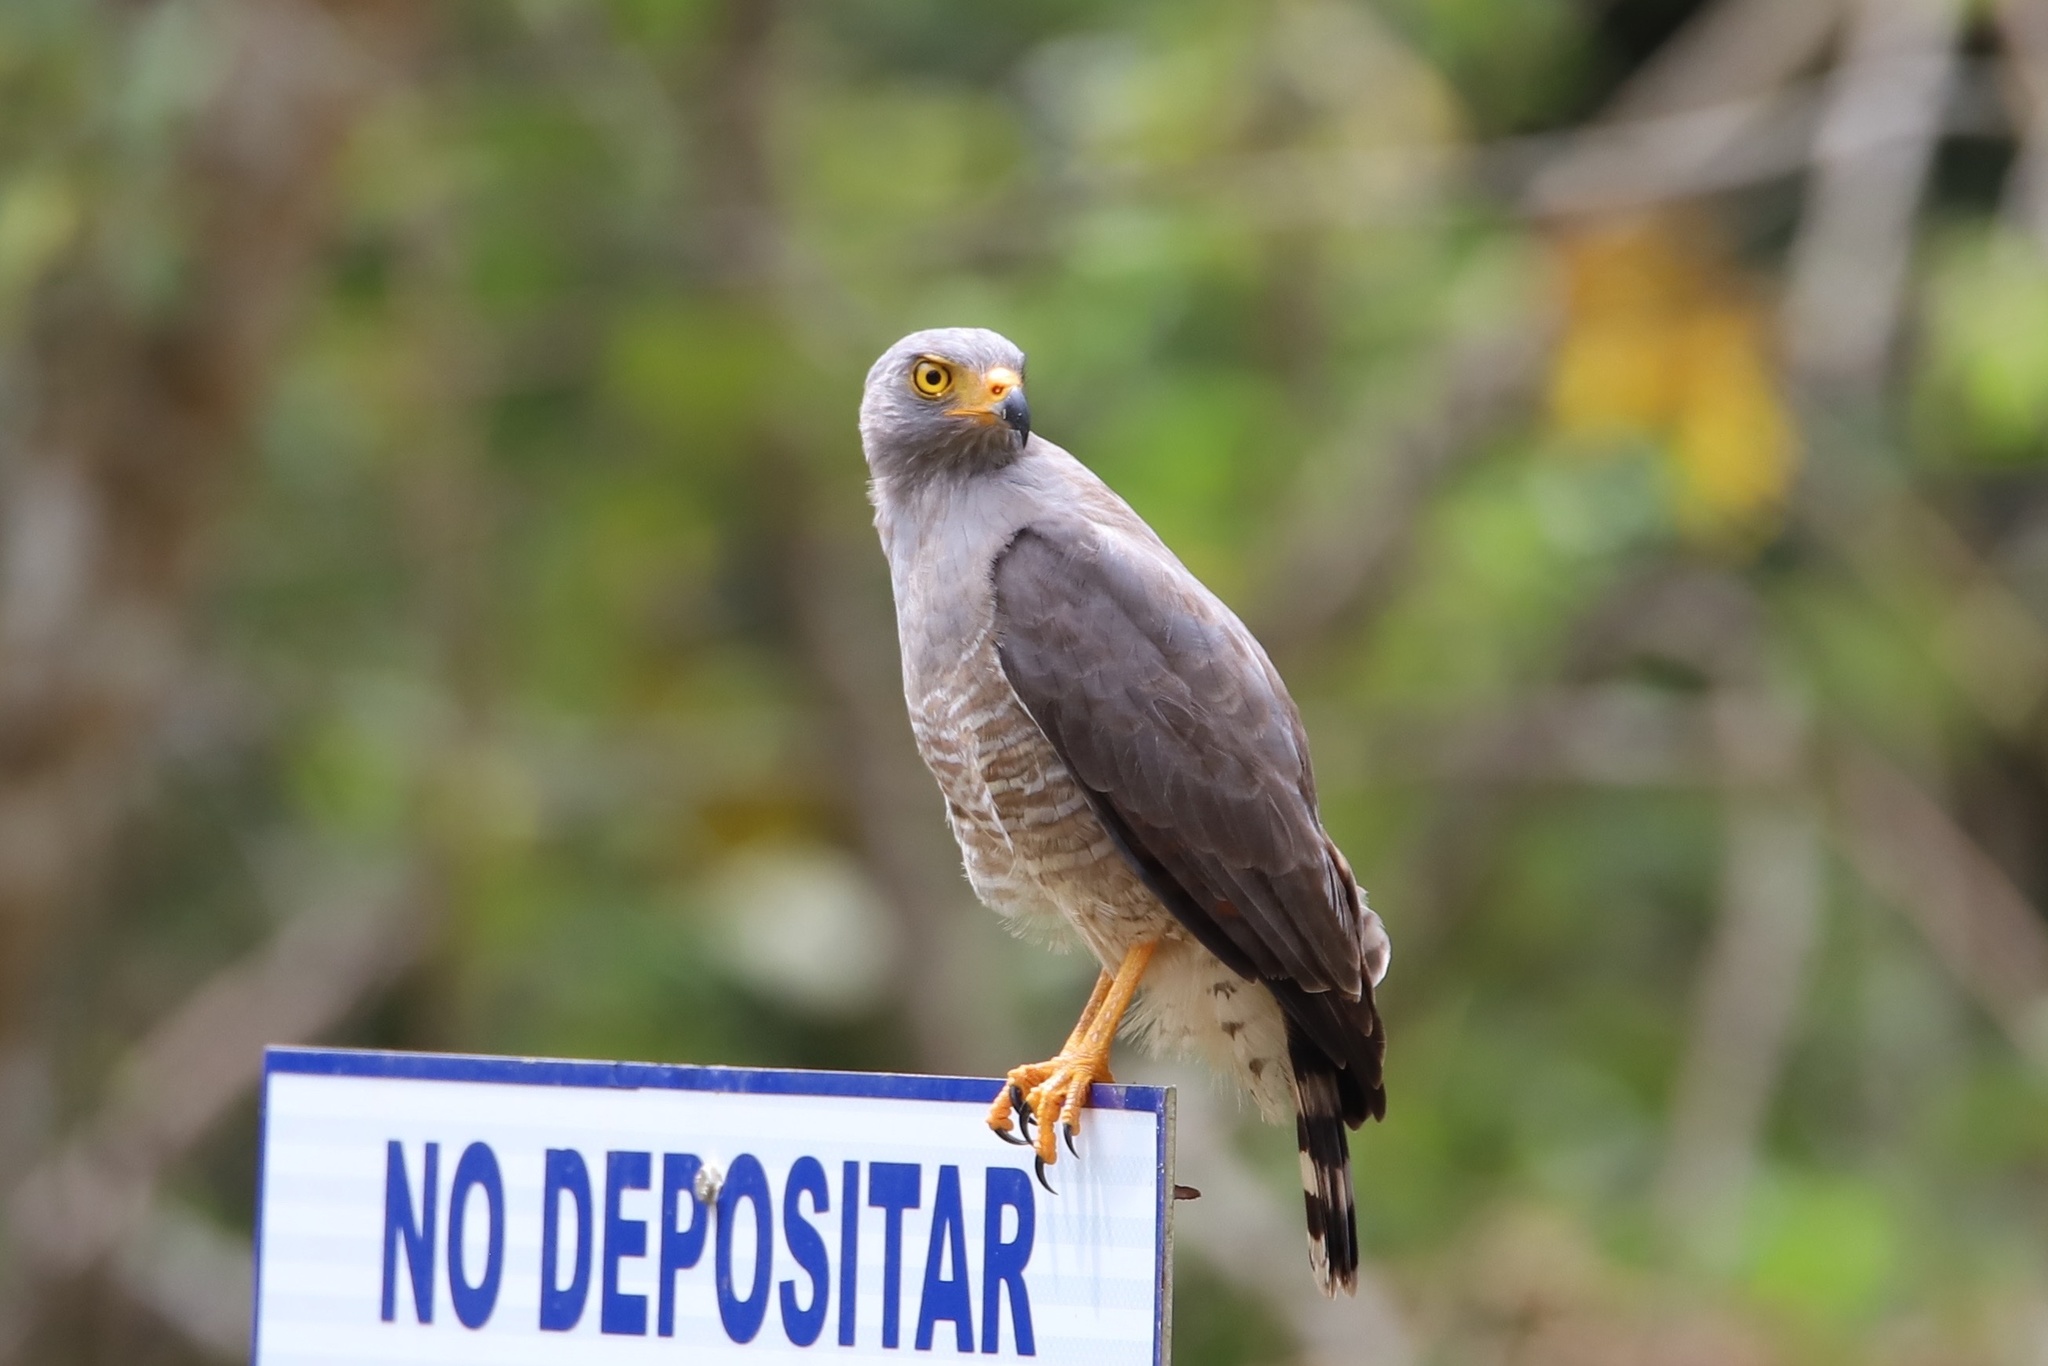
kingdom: Animalia
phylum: Chordata
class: Aves
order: Accipitriformes
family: Accipitridae
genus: Rupornis
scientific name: Rupornis magnirostris
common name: Roadside hawk
